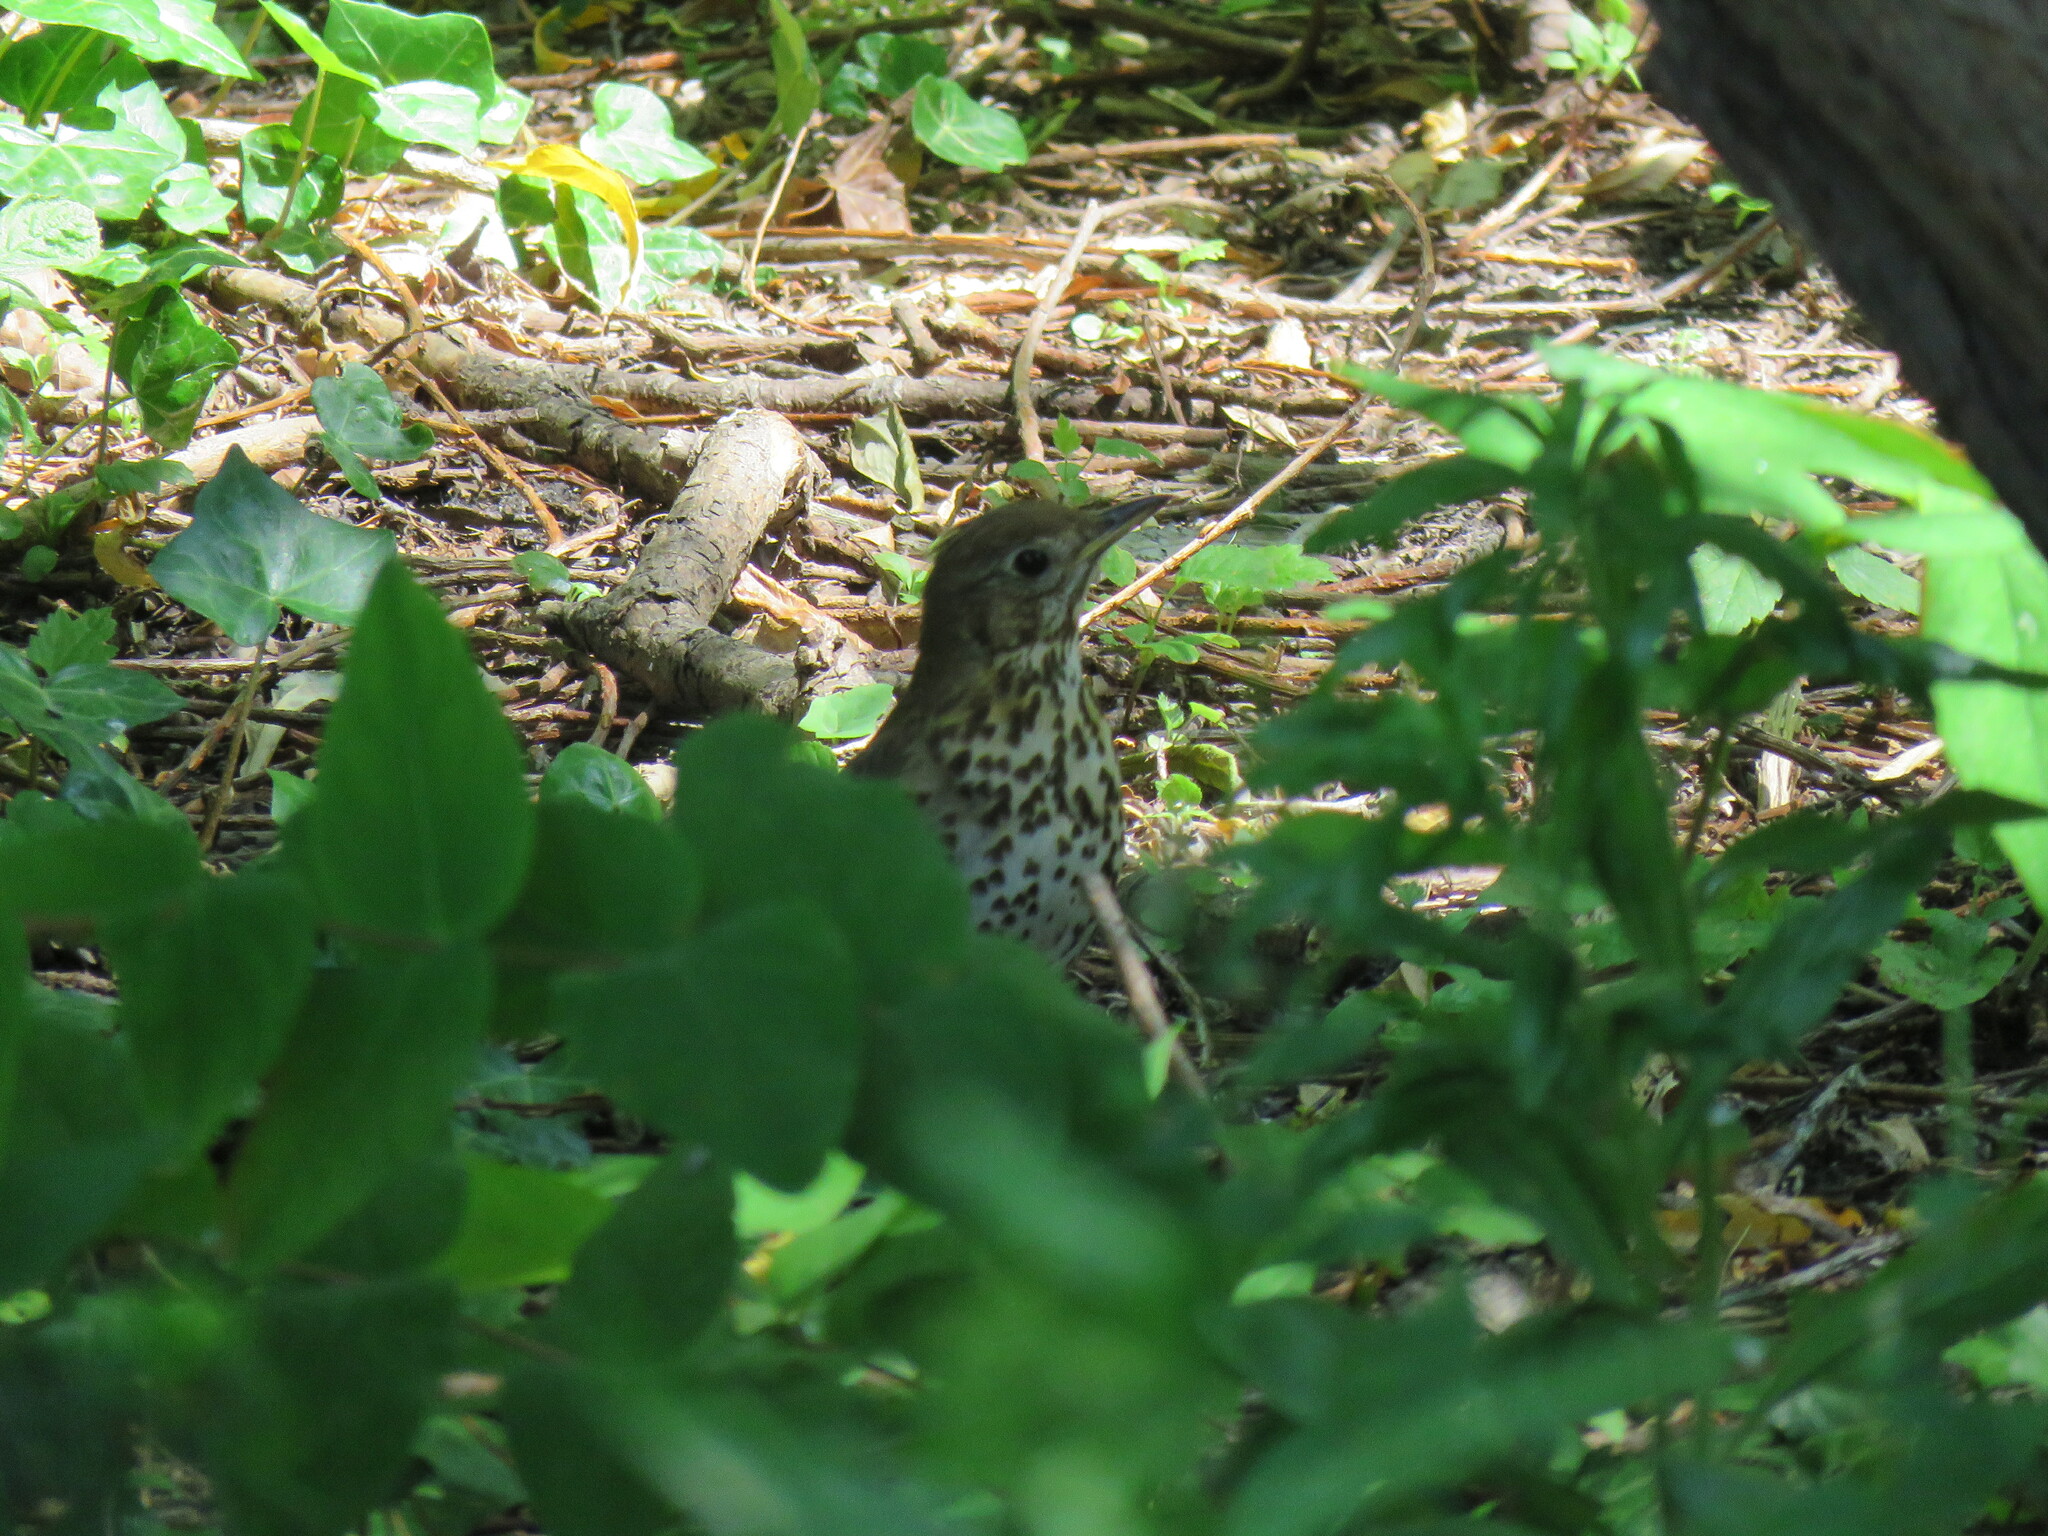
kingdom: Animalia
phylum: Chordata
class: Aves
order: Passeriformes
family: Turdidae
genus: Turdus
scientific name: Turdus philomelos
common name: Song thrush
